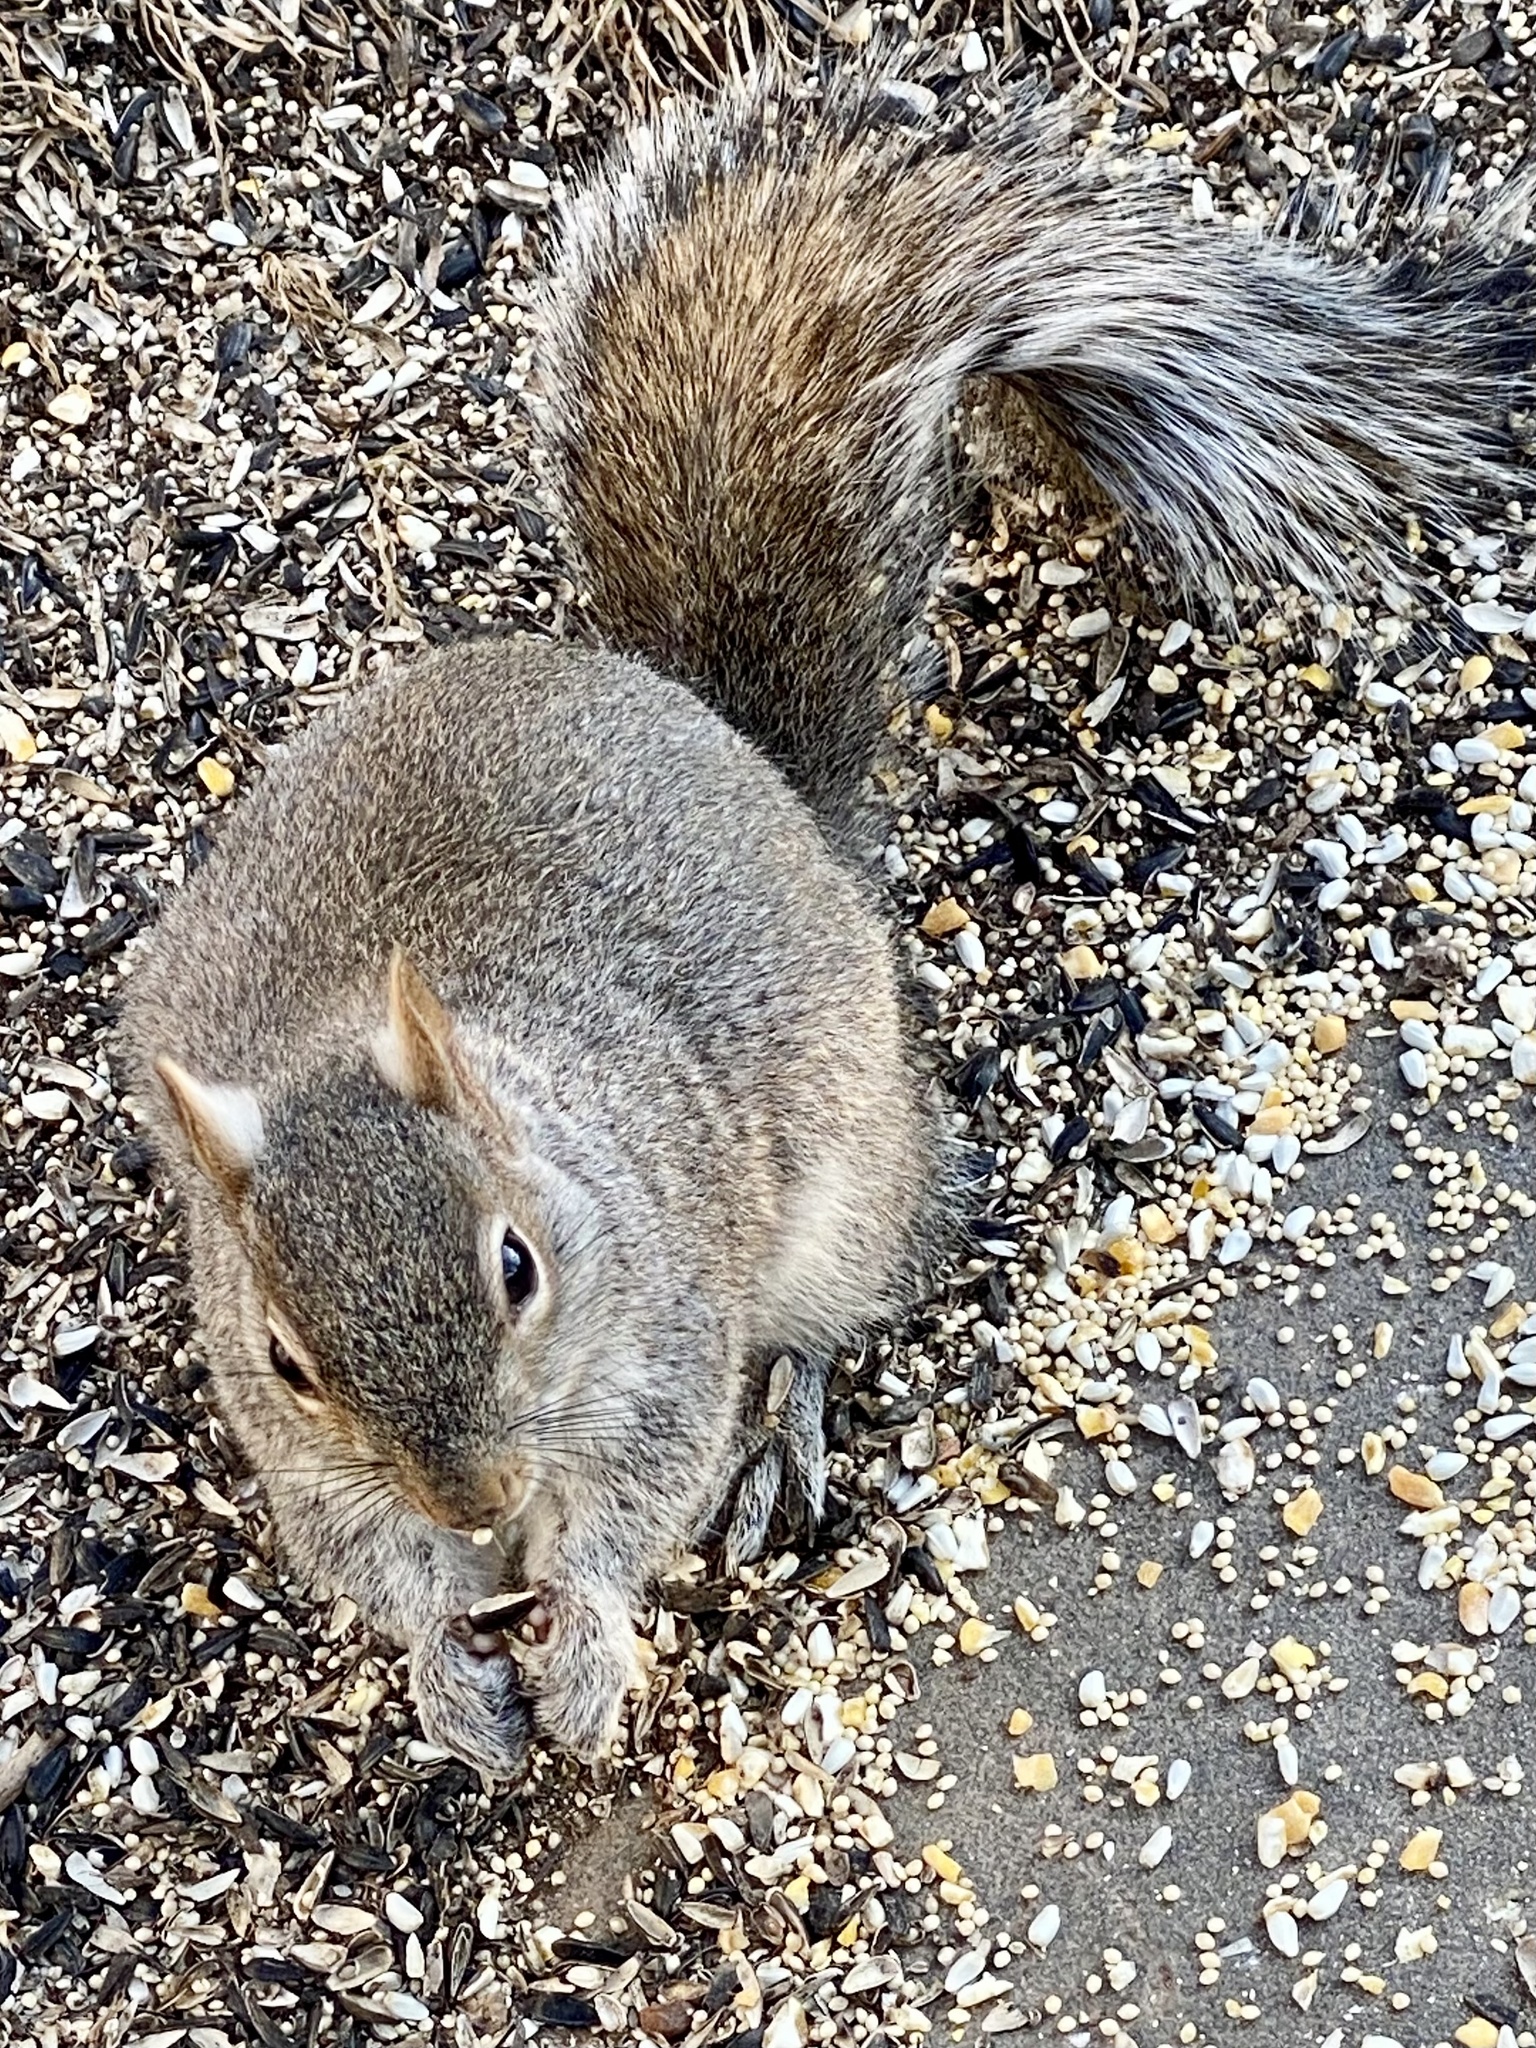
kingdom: Animalia
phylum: Chordata
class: Mammalia
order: Rodentia
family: Sciuridae
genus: Sciurus
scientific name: Sciurus carolinensis
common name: Eastern gray squirrel
